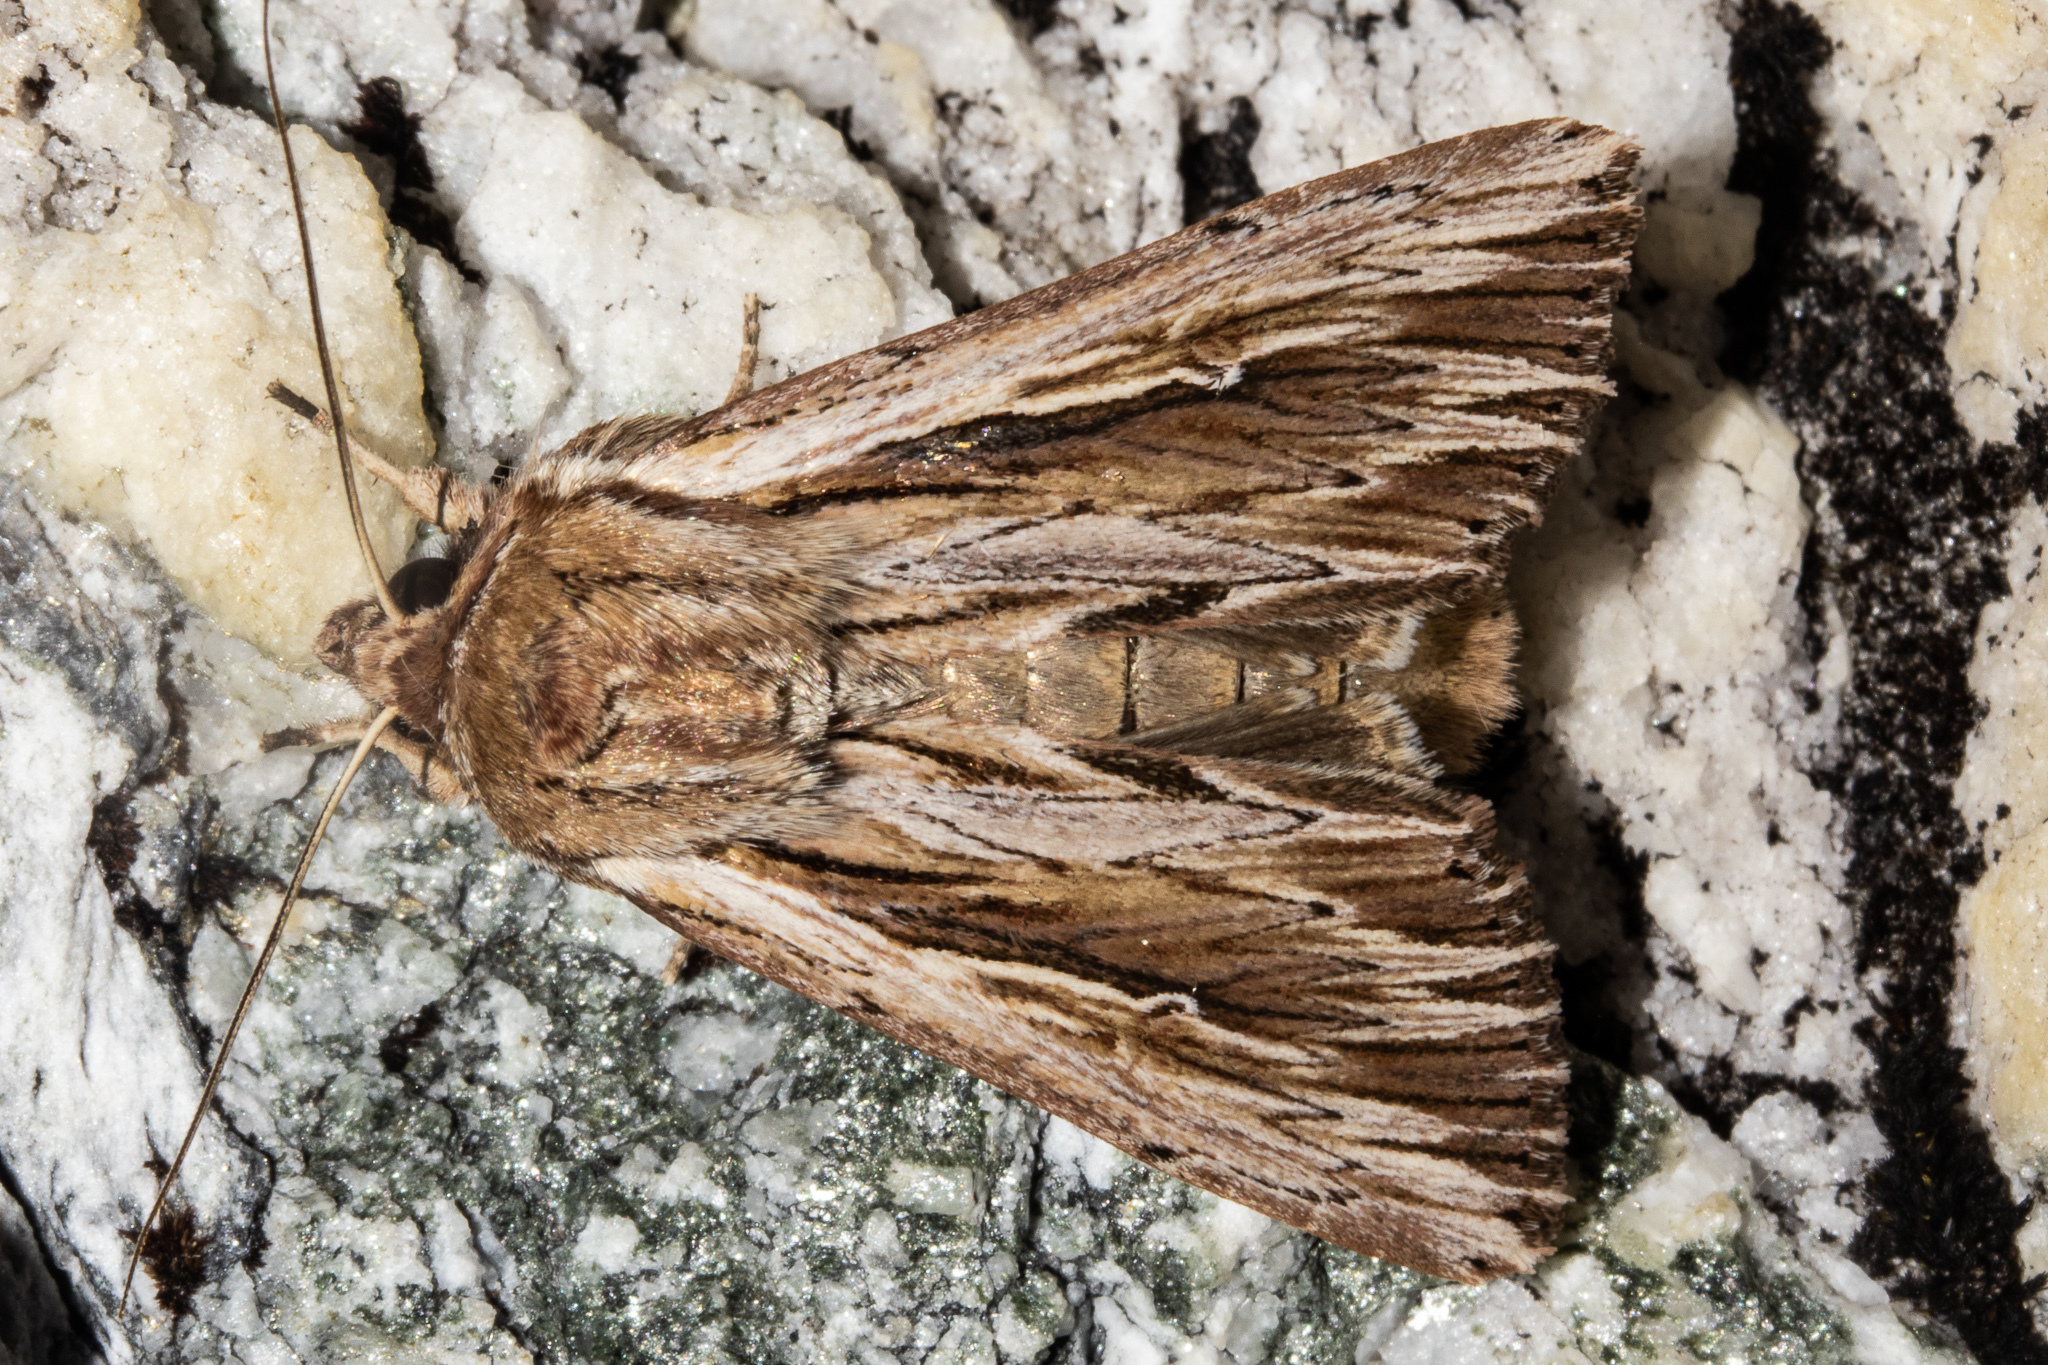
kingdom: Animalia
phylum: Arthropoda
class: Insecta
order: Lepidoptera
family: Noctuidae
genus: Persectania
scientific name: Persectania aversa
